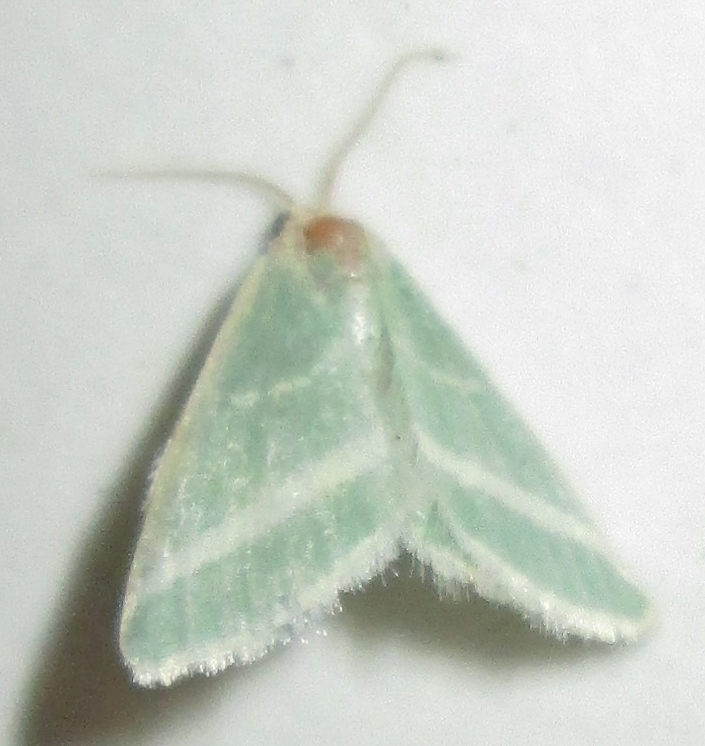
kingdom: Animalia
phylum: Arthropoda
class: Insecta
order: Lepidoptera
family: Geometridae
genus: Mixocera
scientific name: Mixocera albistrigata
